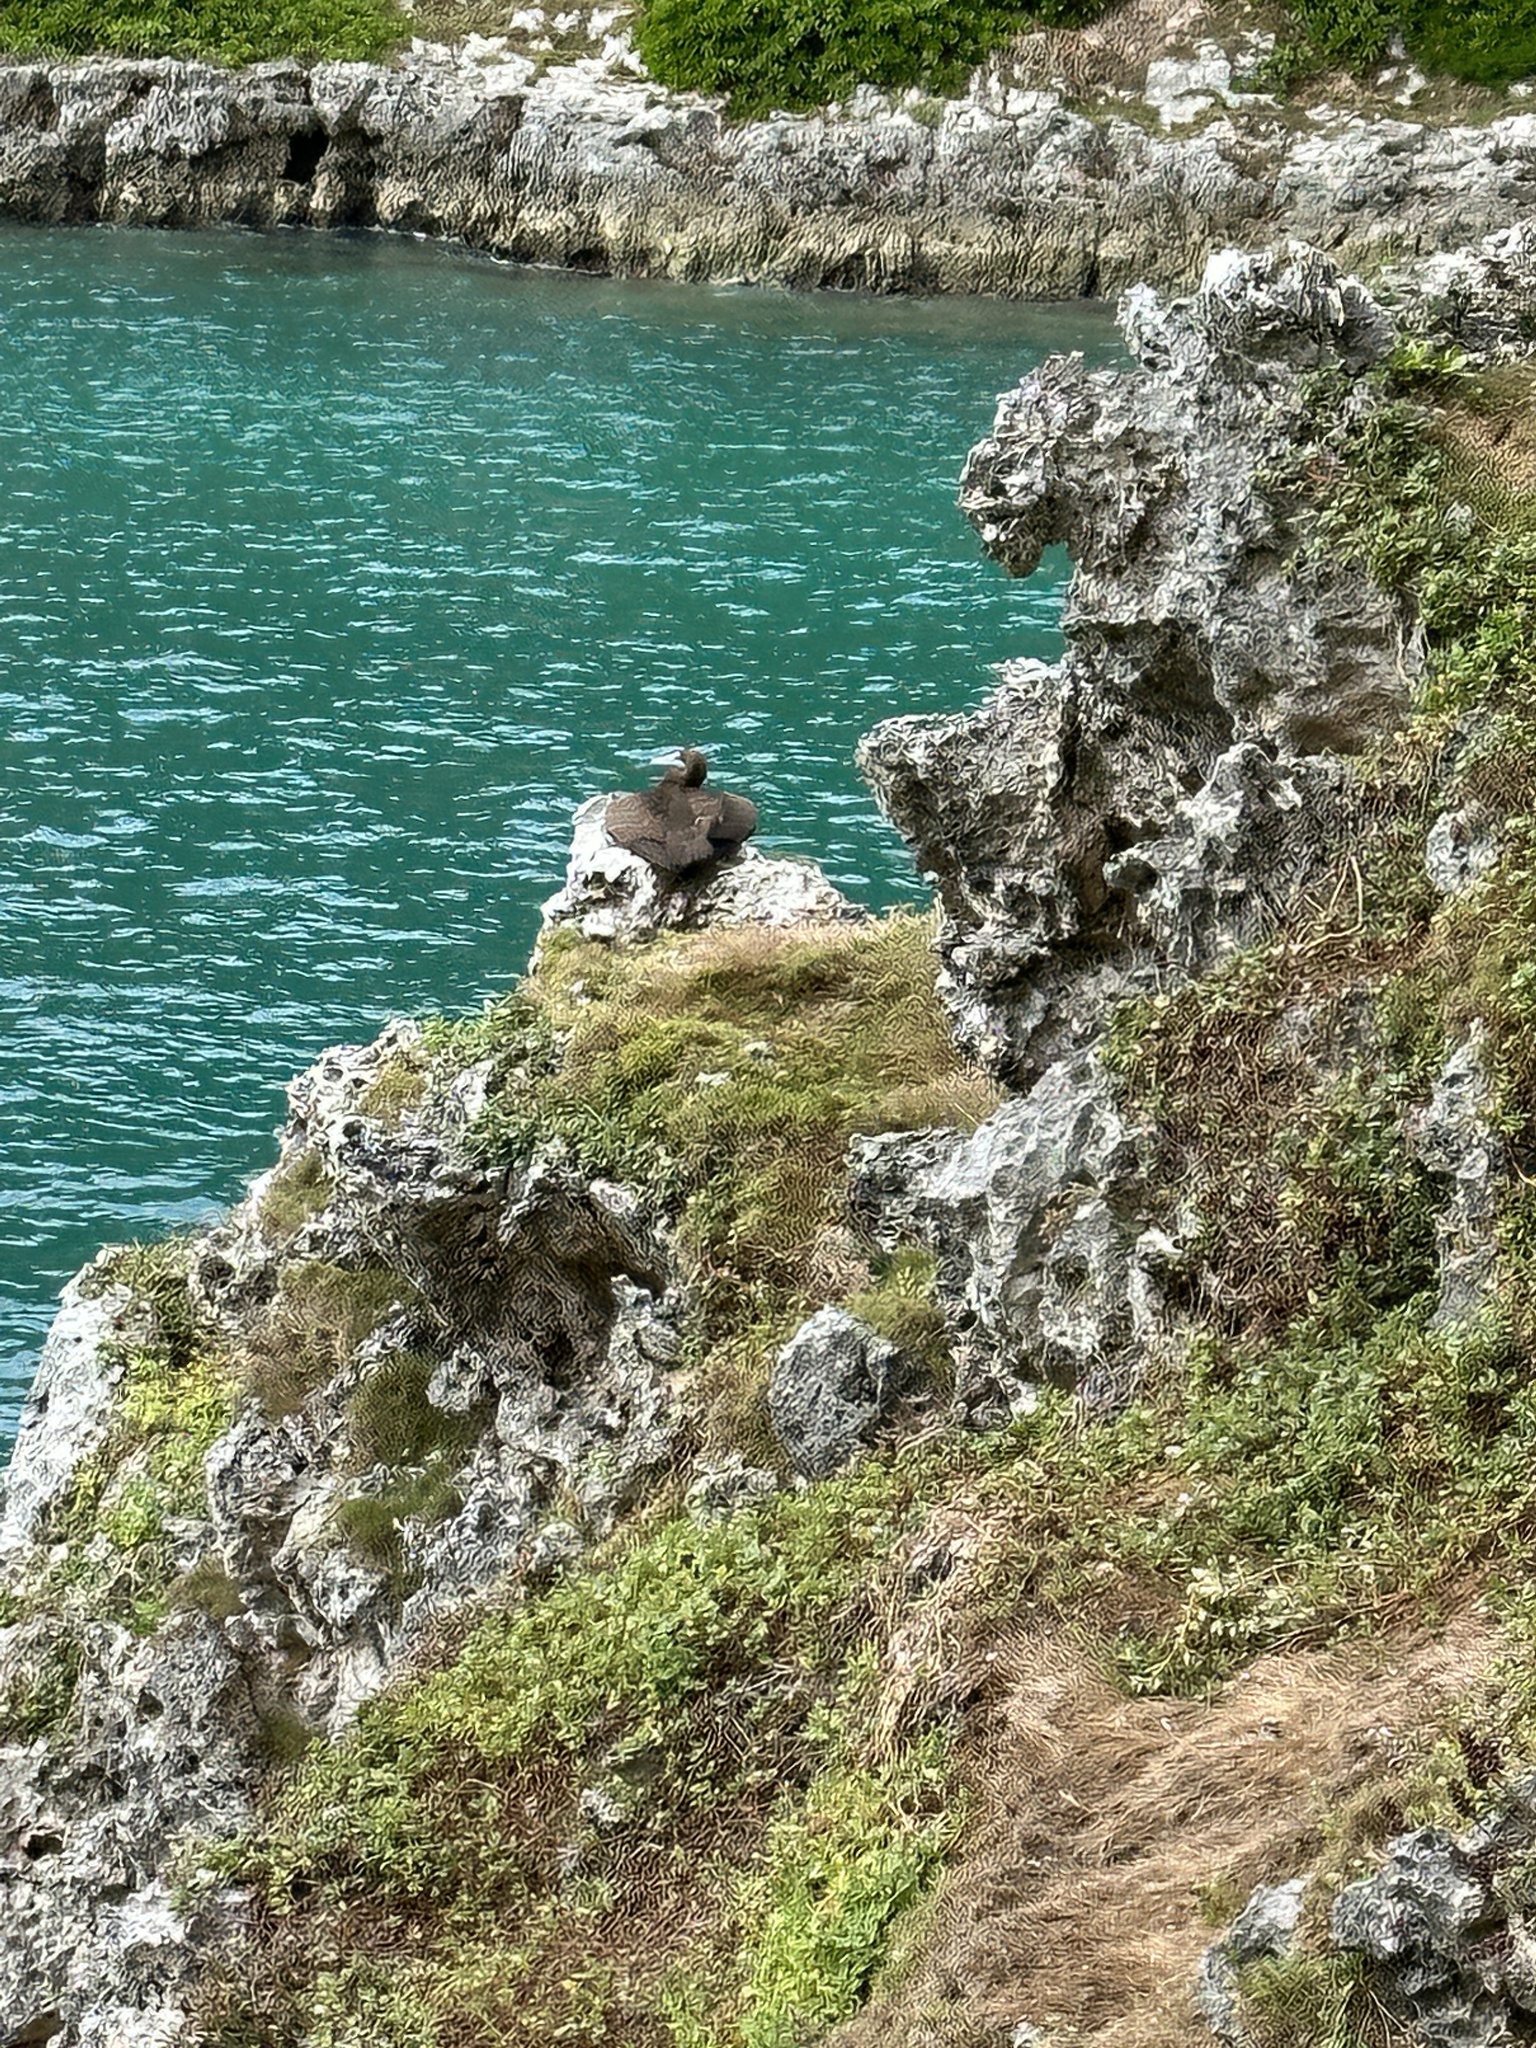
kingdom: Animalia
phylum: Chordata
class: Aves
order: Suliformes
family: Sulidae
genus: Sula
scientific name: Sula leucogaster
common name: Brown booby
